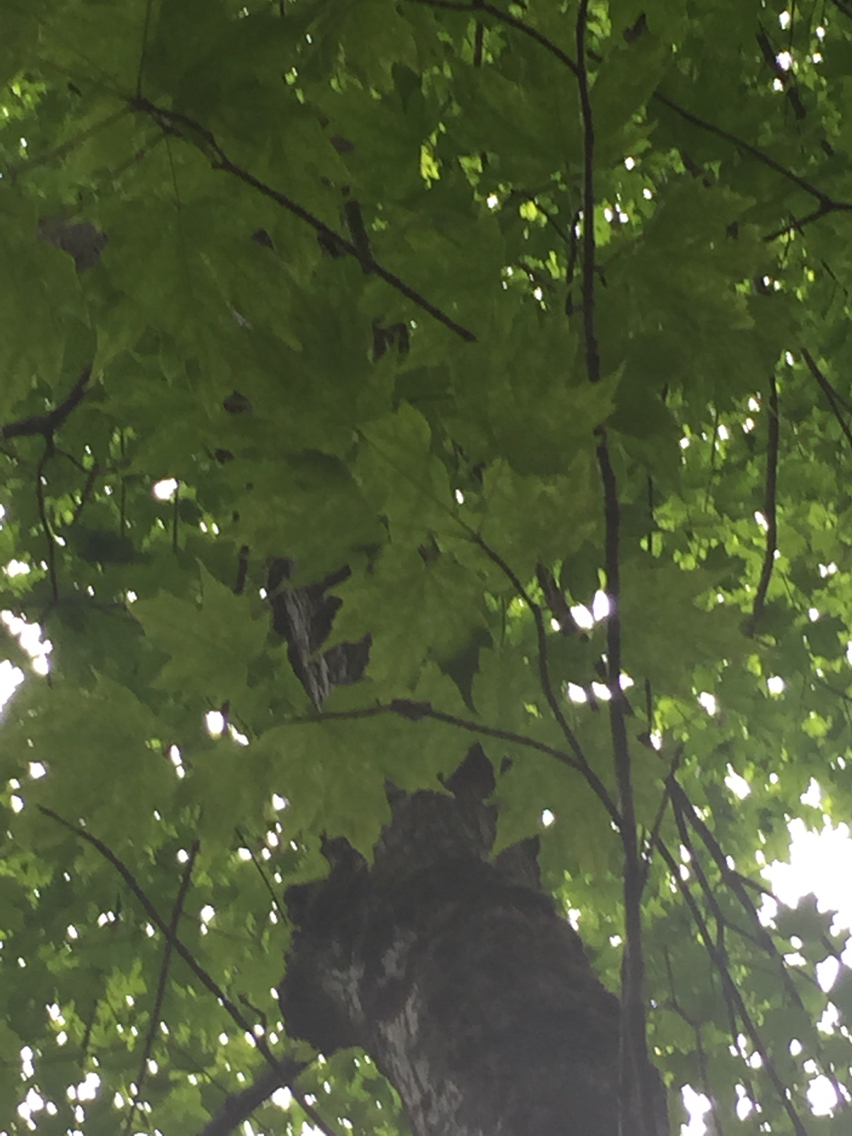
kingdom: Plantae
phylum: Tracheophyta
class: Magnoliopsida
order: Sapindales
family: Sapindaceae
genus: Acer
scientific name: Acer saccharum
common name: Sugar maple
